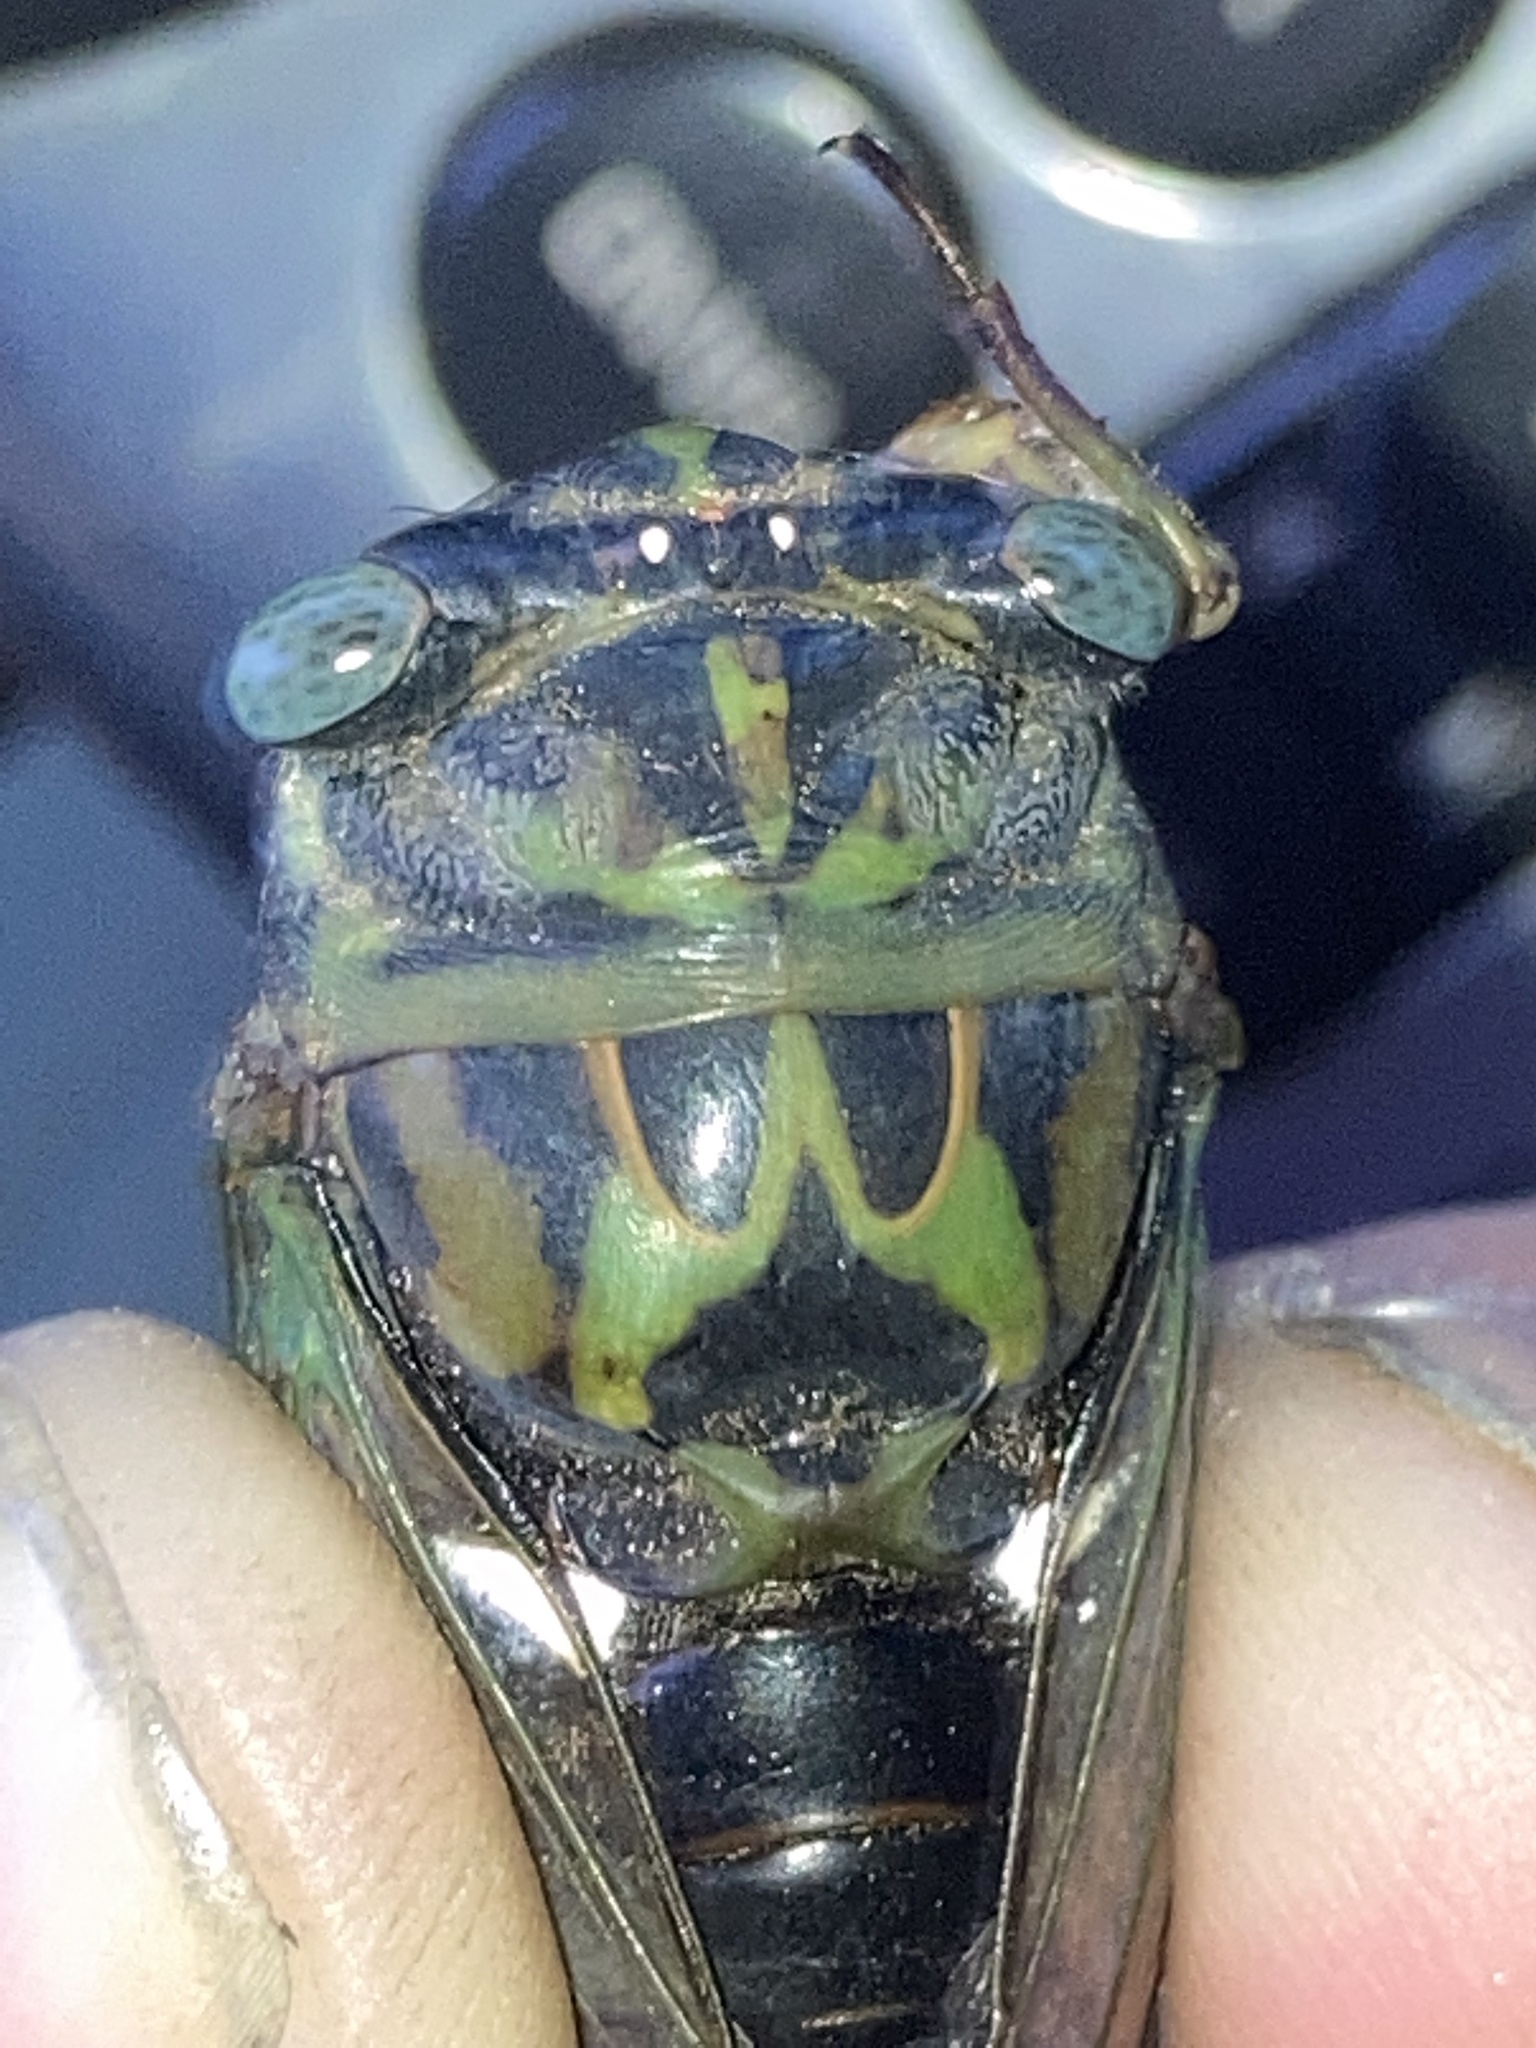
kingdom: Animalia
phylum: Arthropoda
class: Insecta
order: Hemiptera
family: Cicadidae
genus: Neotibicen
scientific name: Neotibicen pruinosus
